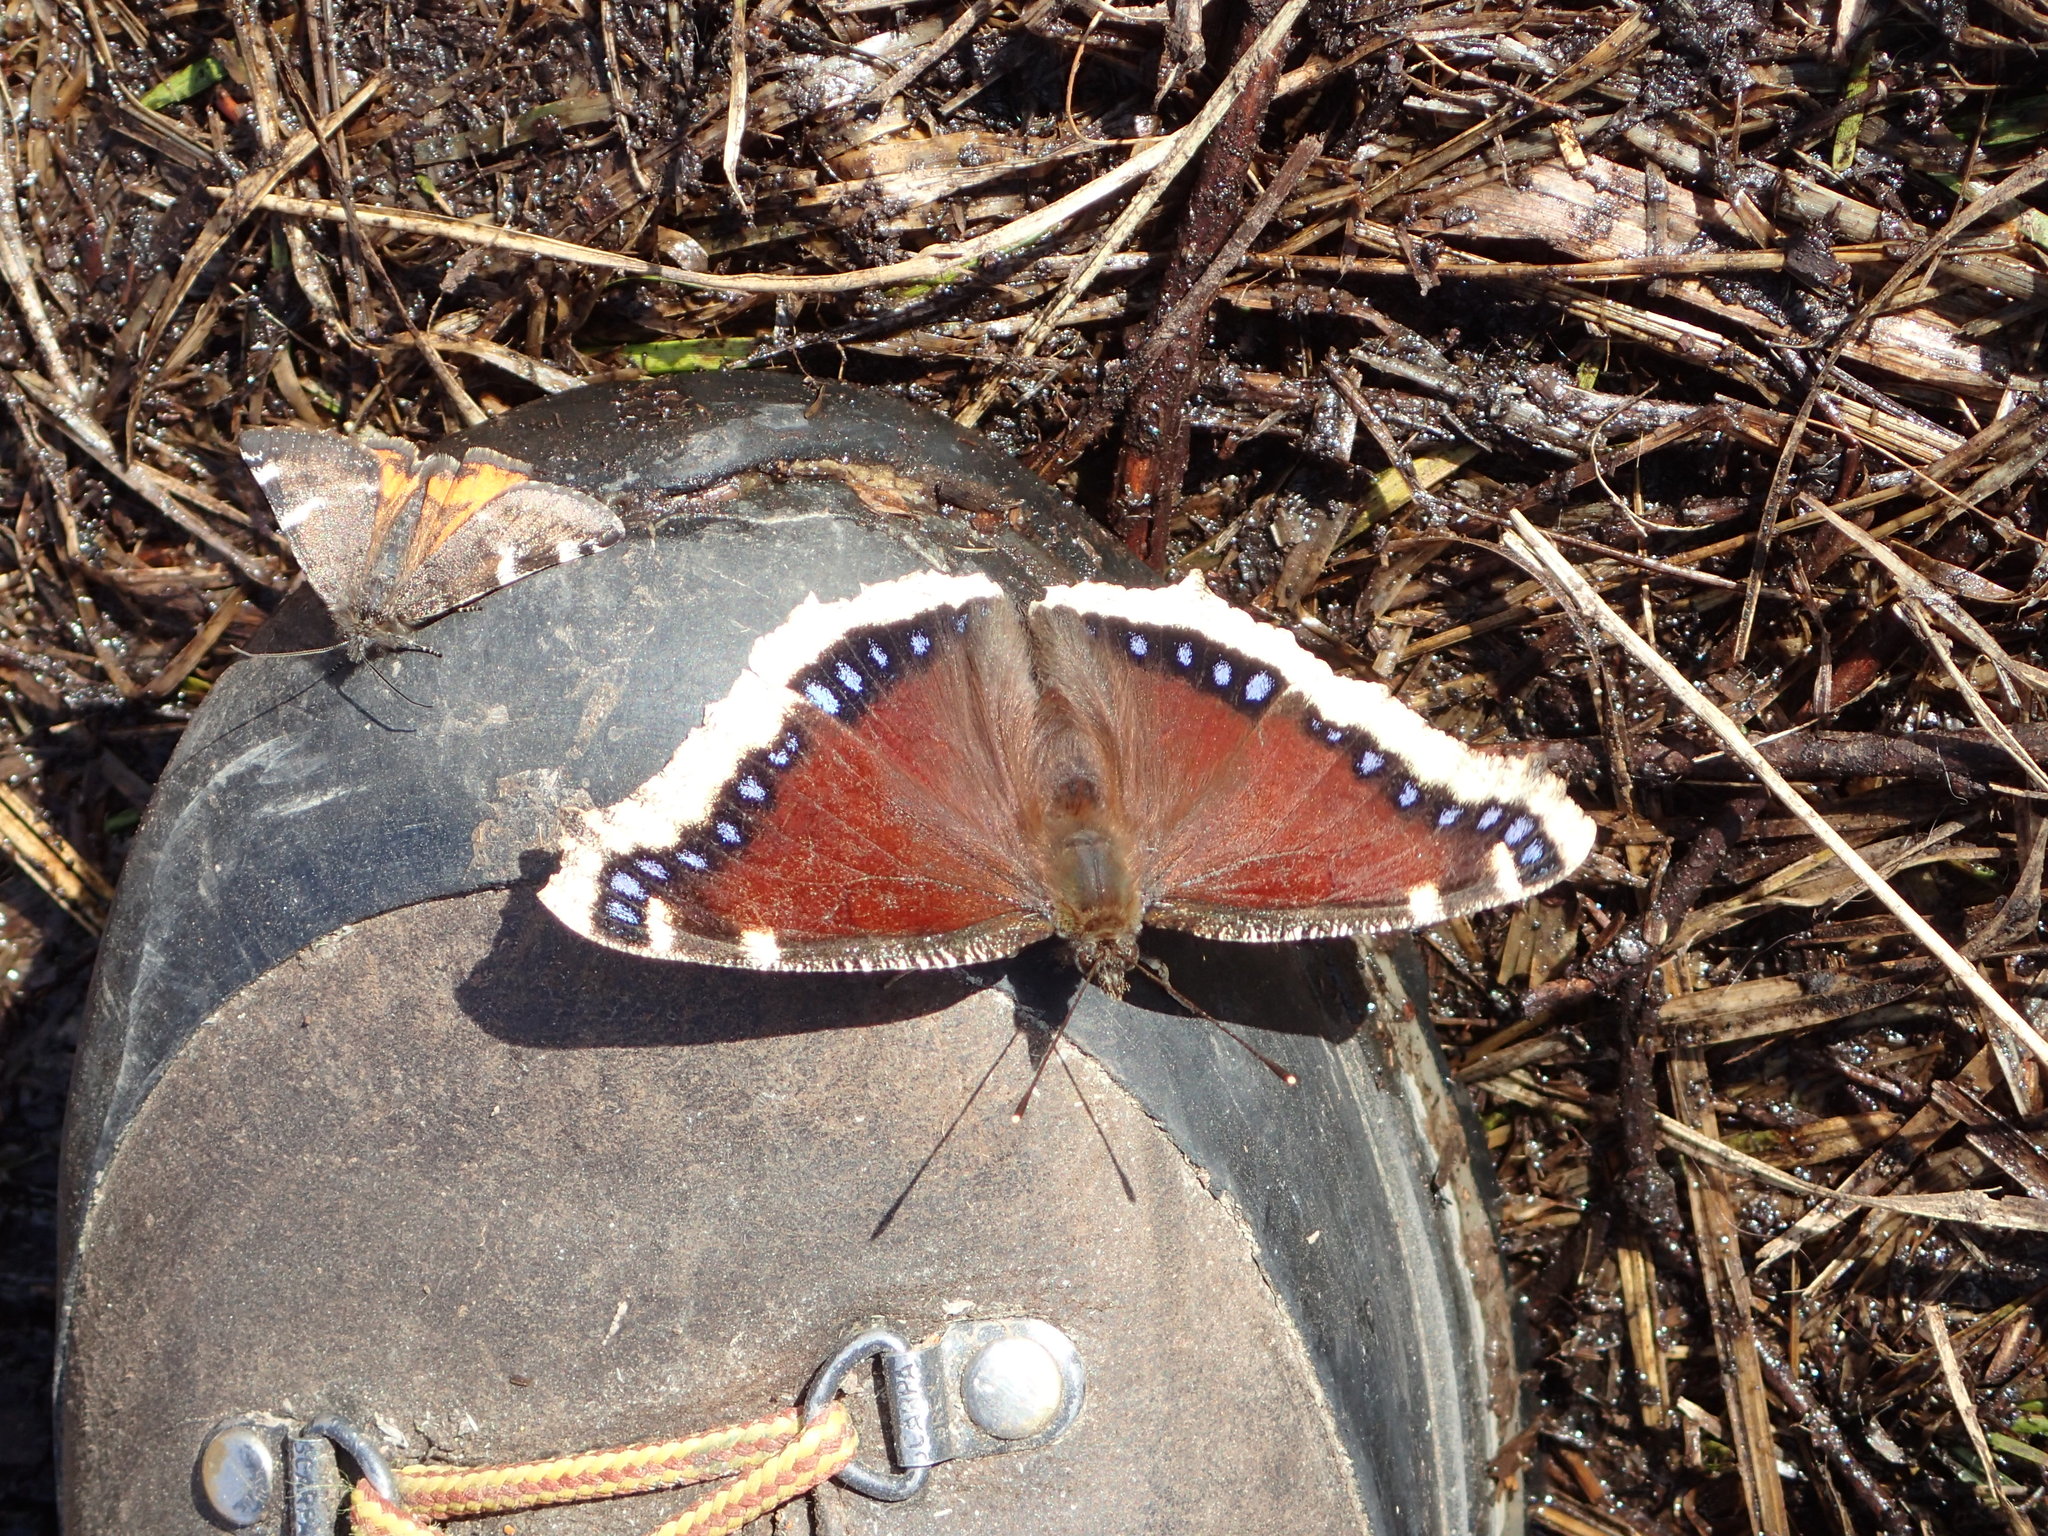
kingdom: Animalia
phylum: Arthropoda
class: Insecta
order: Lepidoptera
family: Nymphalidae
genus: Nymphalis
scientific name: Nymphalis antiopa
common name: Camberwell beauty
